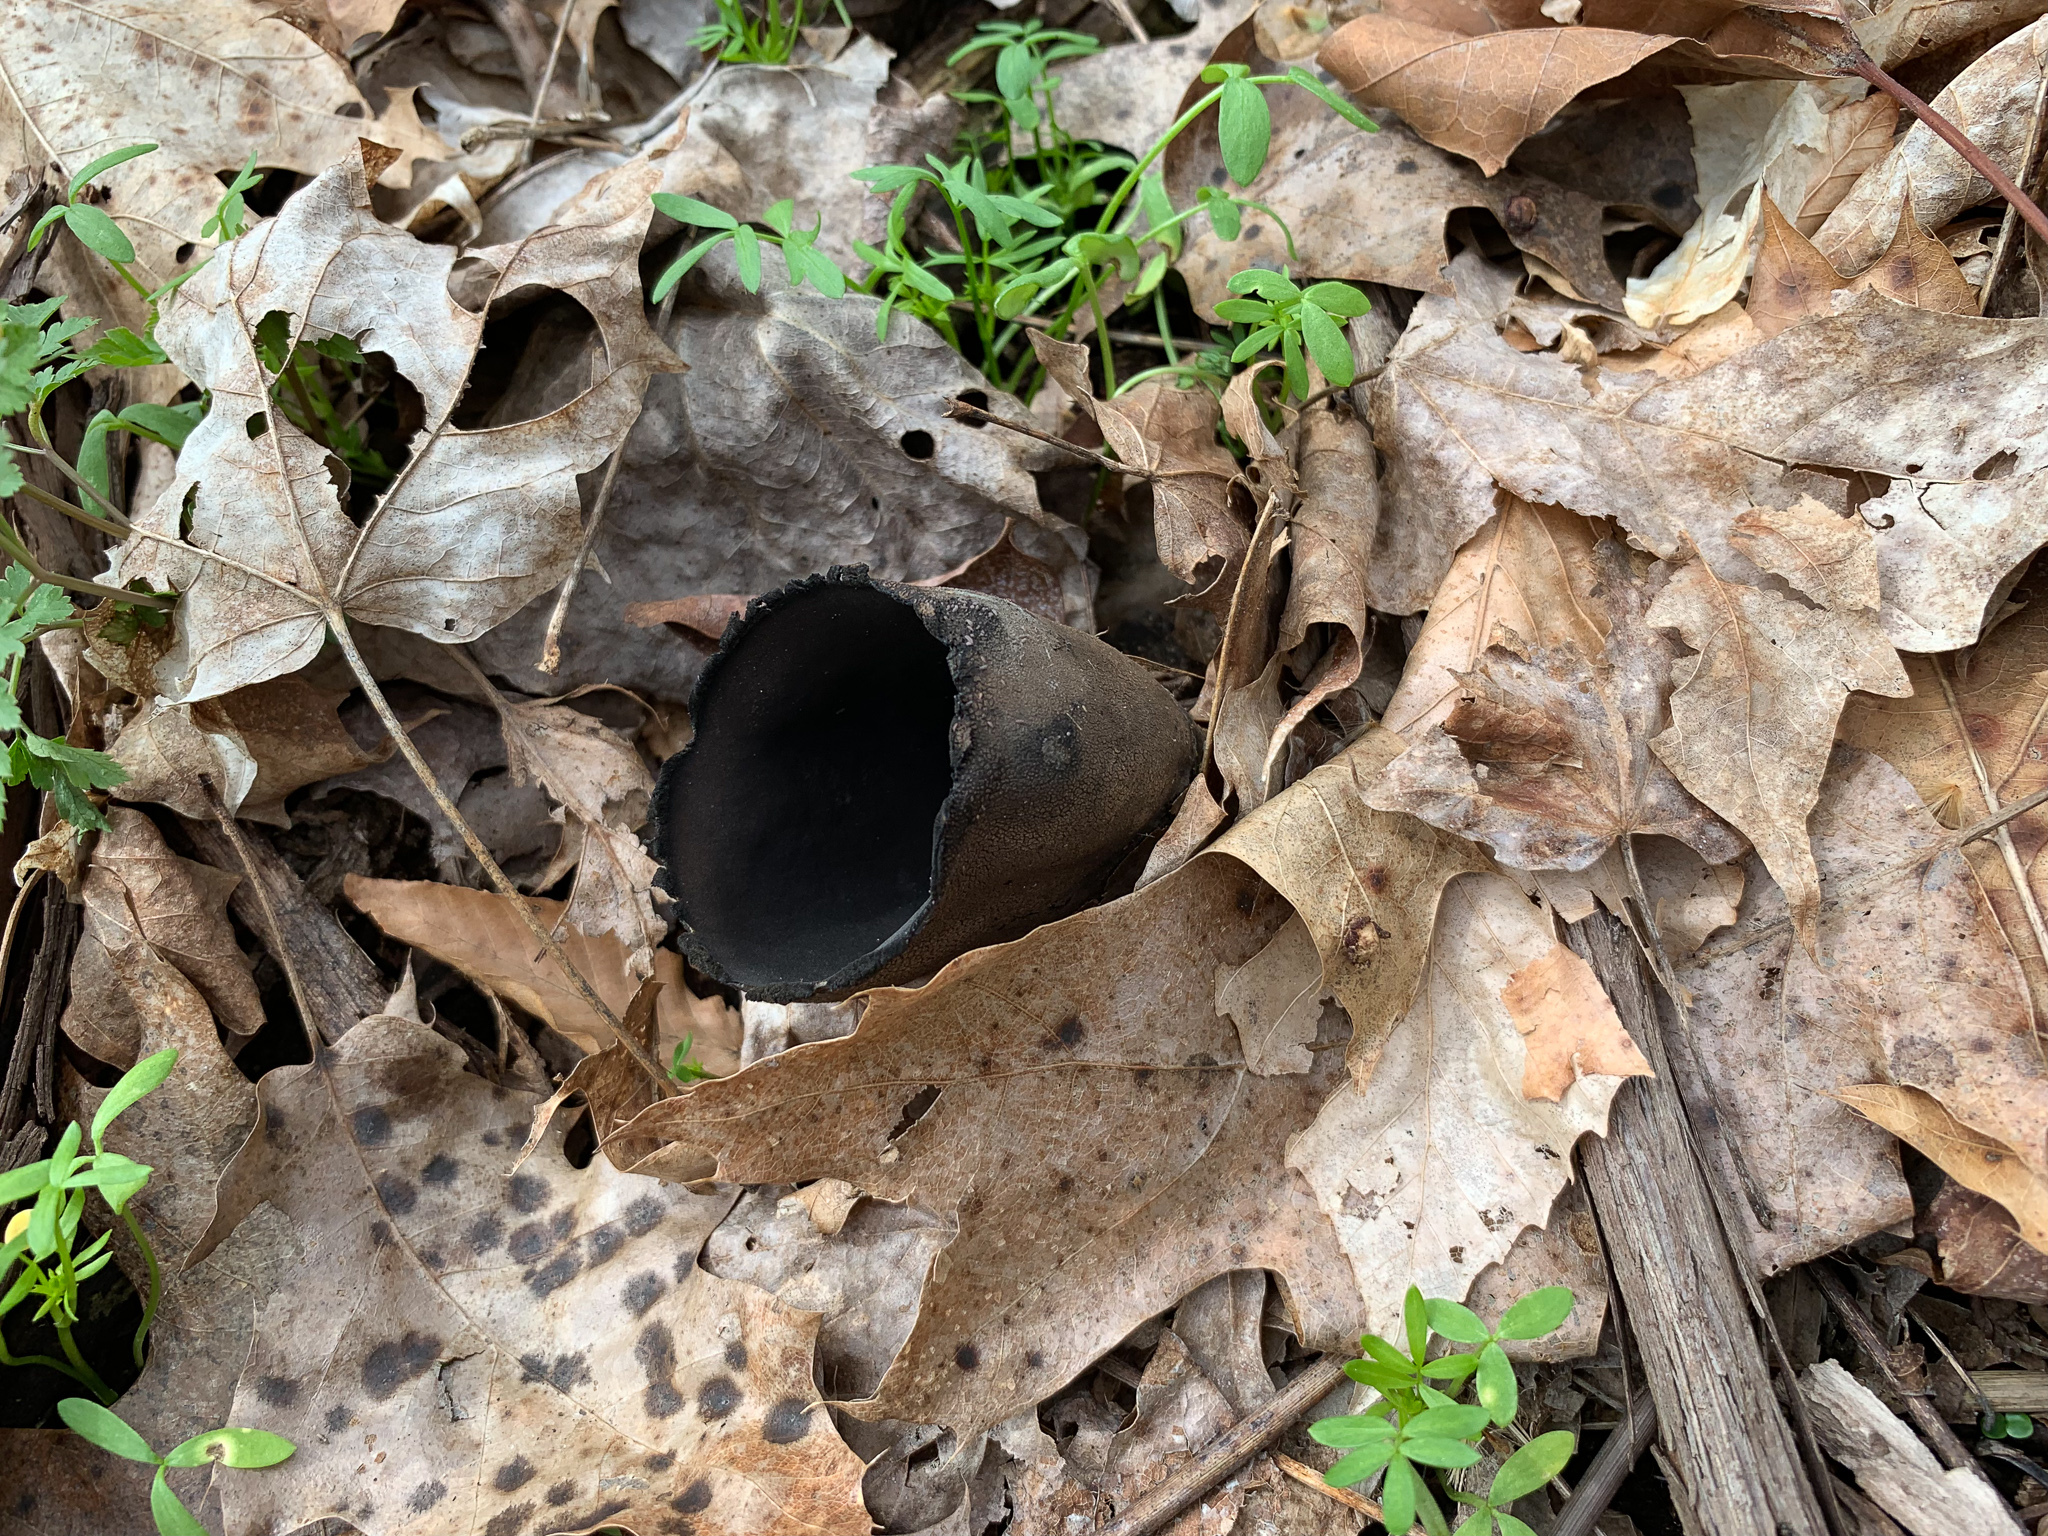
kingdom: Fungi
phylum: Ascomycota
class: Pezizomycetes
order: Pezizales
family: Sarcosomataceae
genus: Urnula
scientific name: Urnula craterium
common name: Devil's urn
